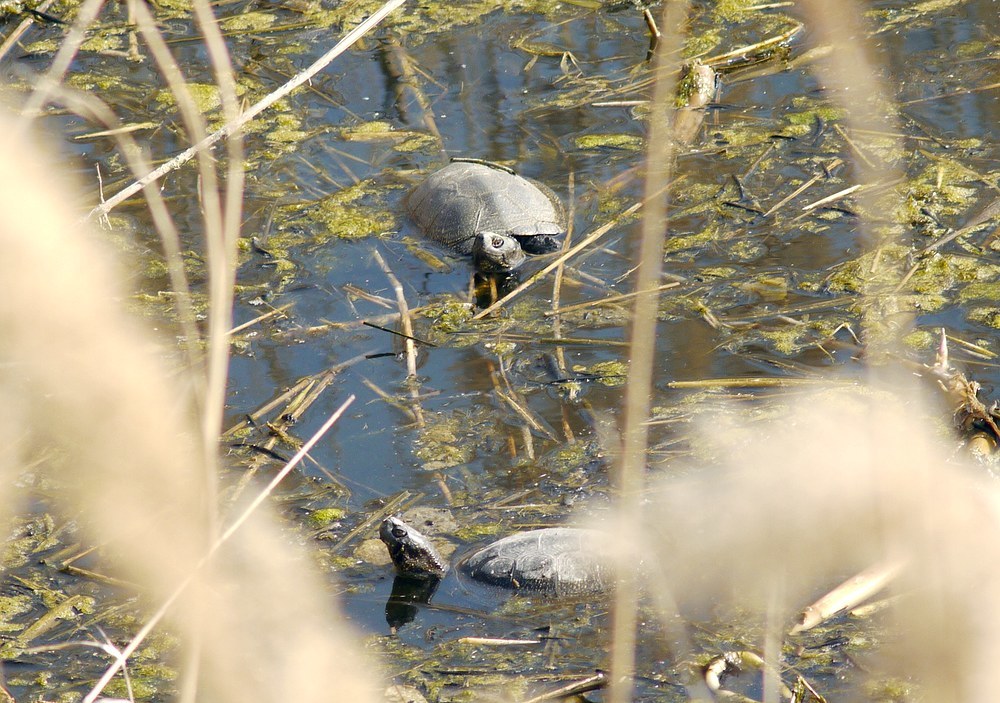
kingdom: Animalia
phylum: Chordata
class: Testudines
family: Emydidae
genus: Emys
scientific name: Emys orbicularis
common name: European pond turtle
